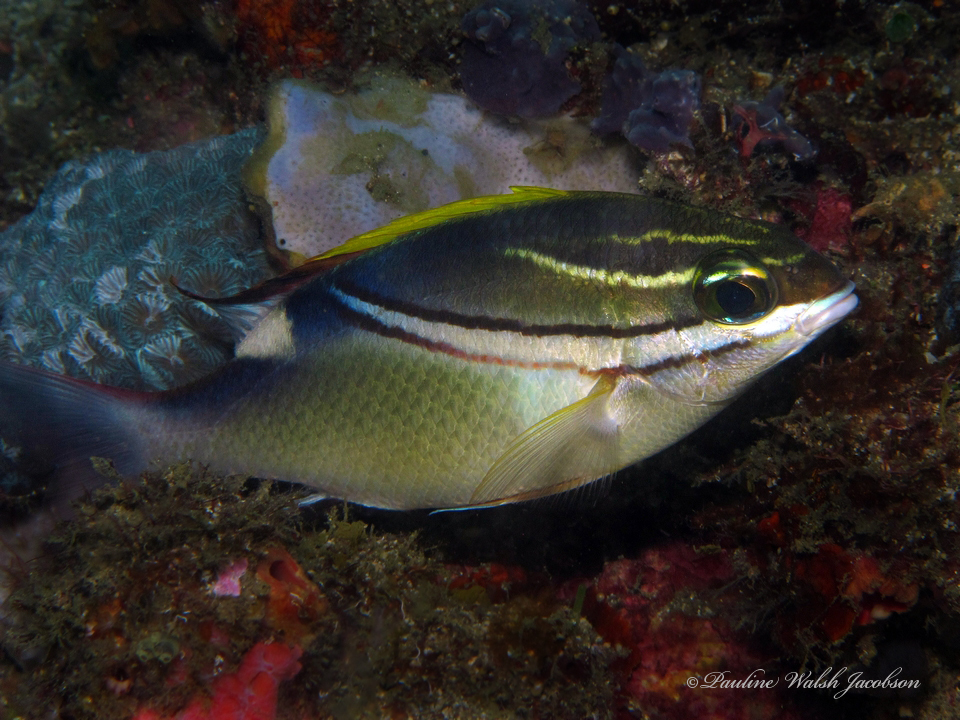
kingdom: Animalia
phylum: Chordata
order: Perciformes
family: Nemipteridae
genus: Scolopsis
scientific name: Scolopsis bilineata
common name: Two-lined monocle bream
